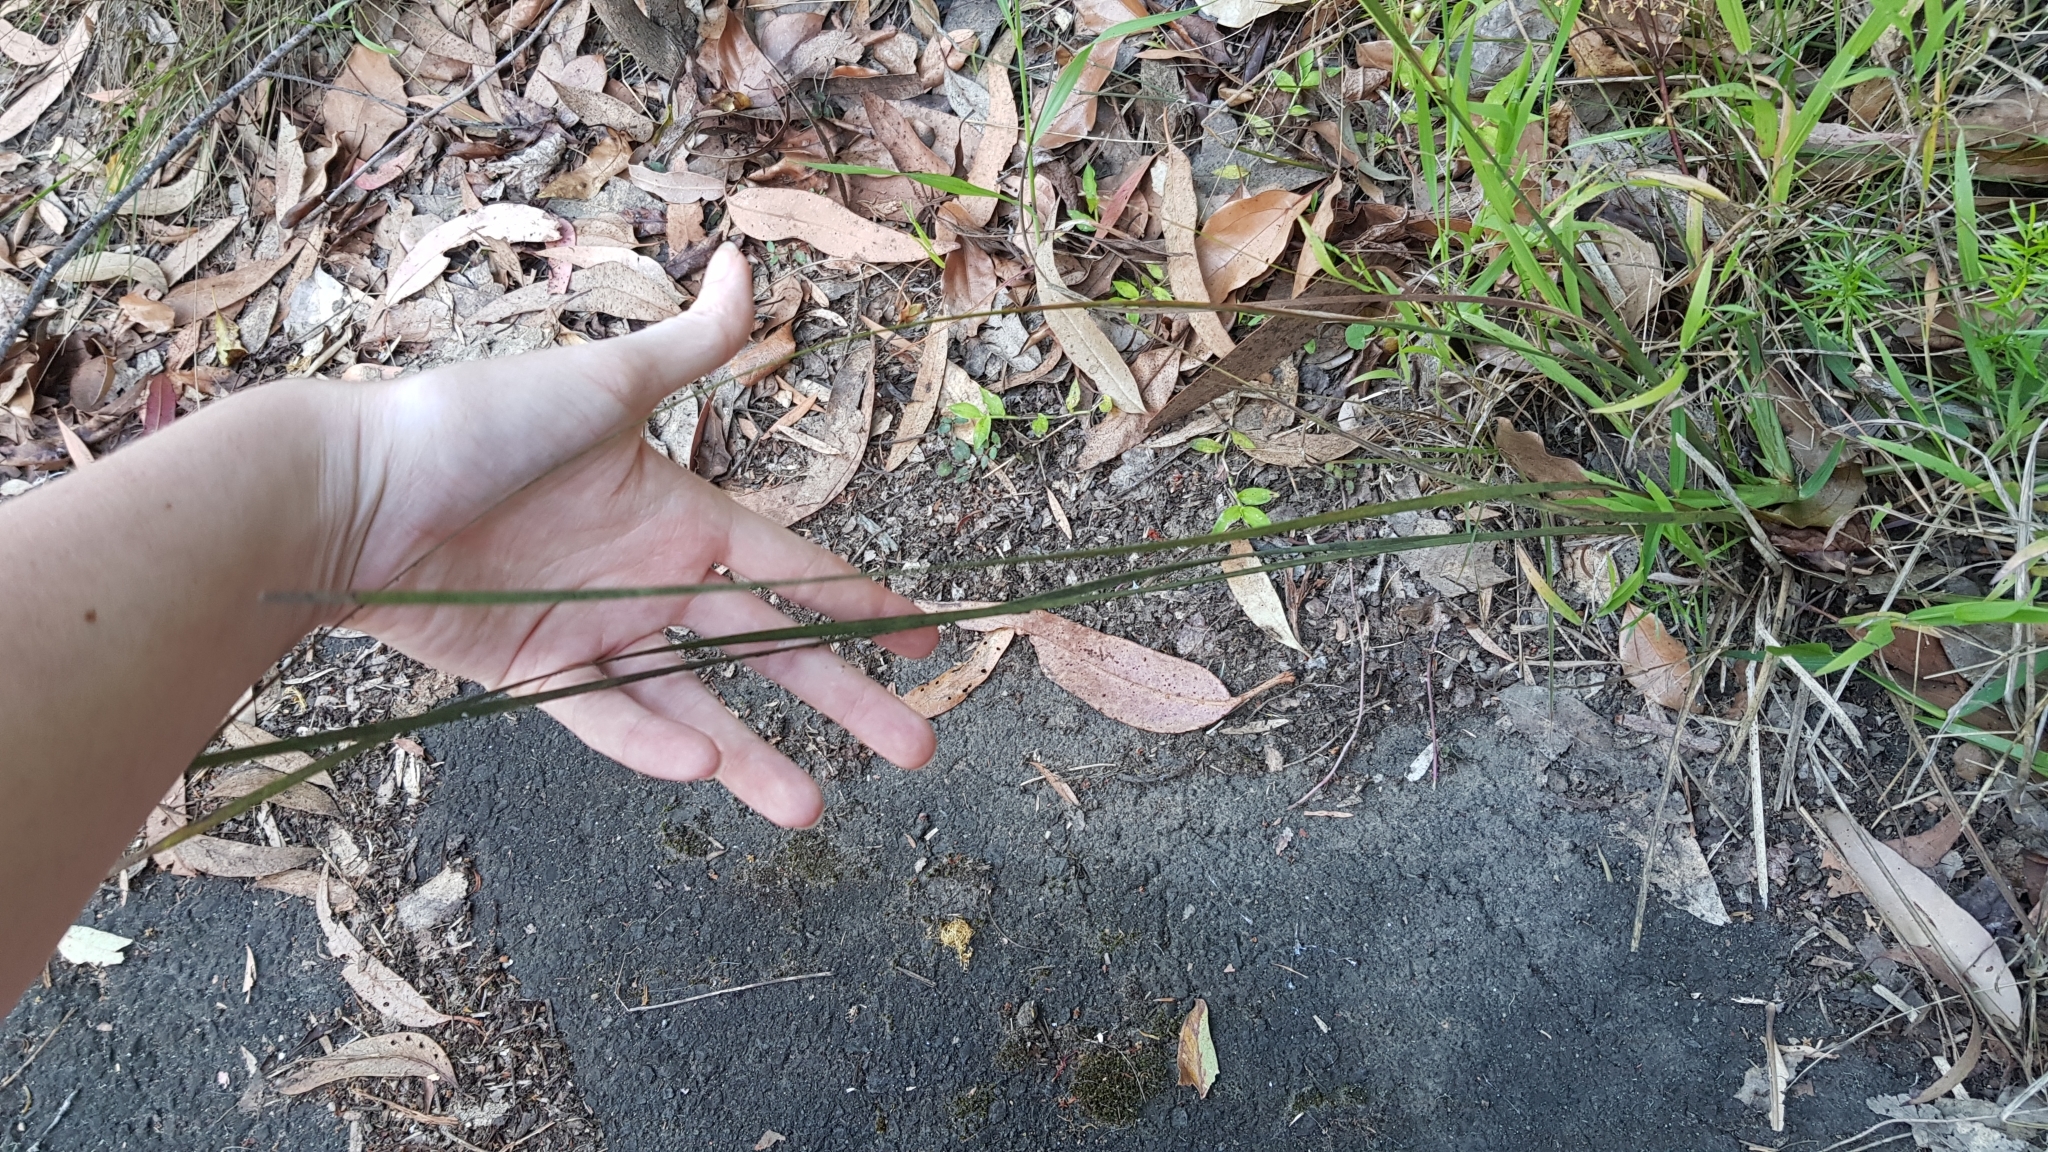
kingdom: Plantae
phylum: Tracheophyta
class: Liliopsida
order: Asparagales
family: Asparagaceae
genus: Lomandra
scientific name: Lomandra multiflora
